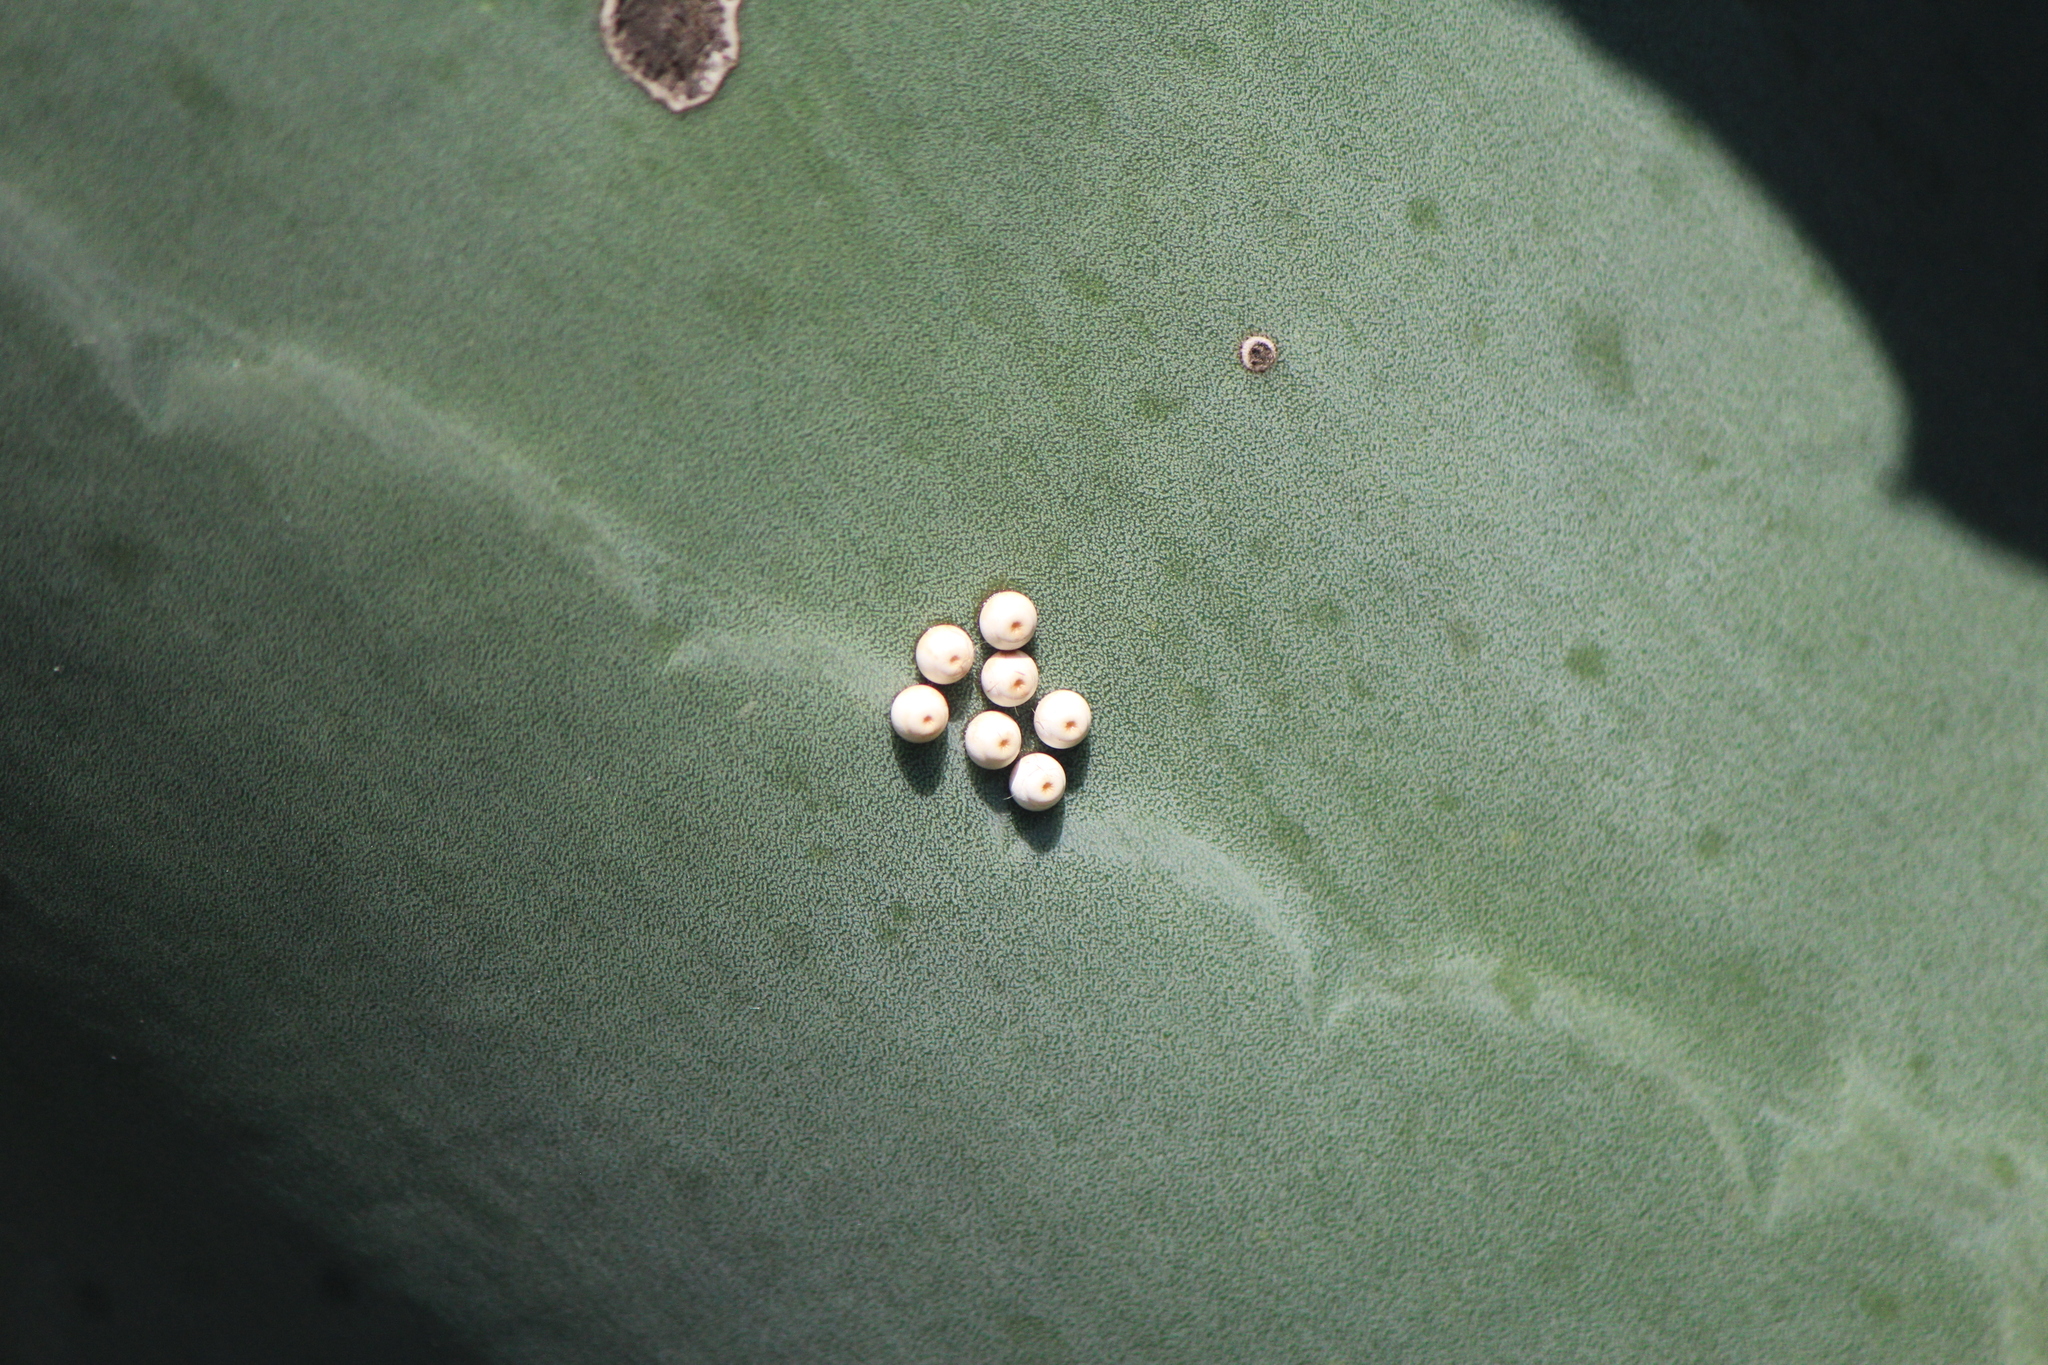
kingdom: Animalia
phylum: Arthropoda
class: Insecta
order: Lepidoptera
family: Hesperiidae
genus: Aegiale
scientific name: Aegiale hesperiaris
